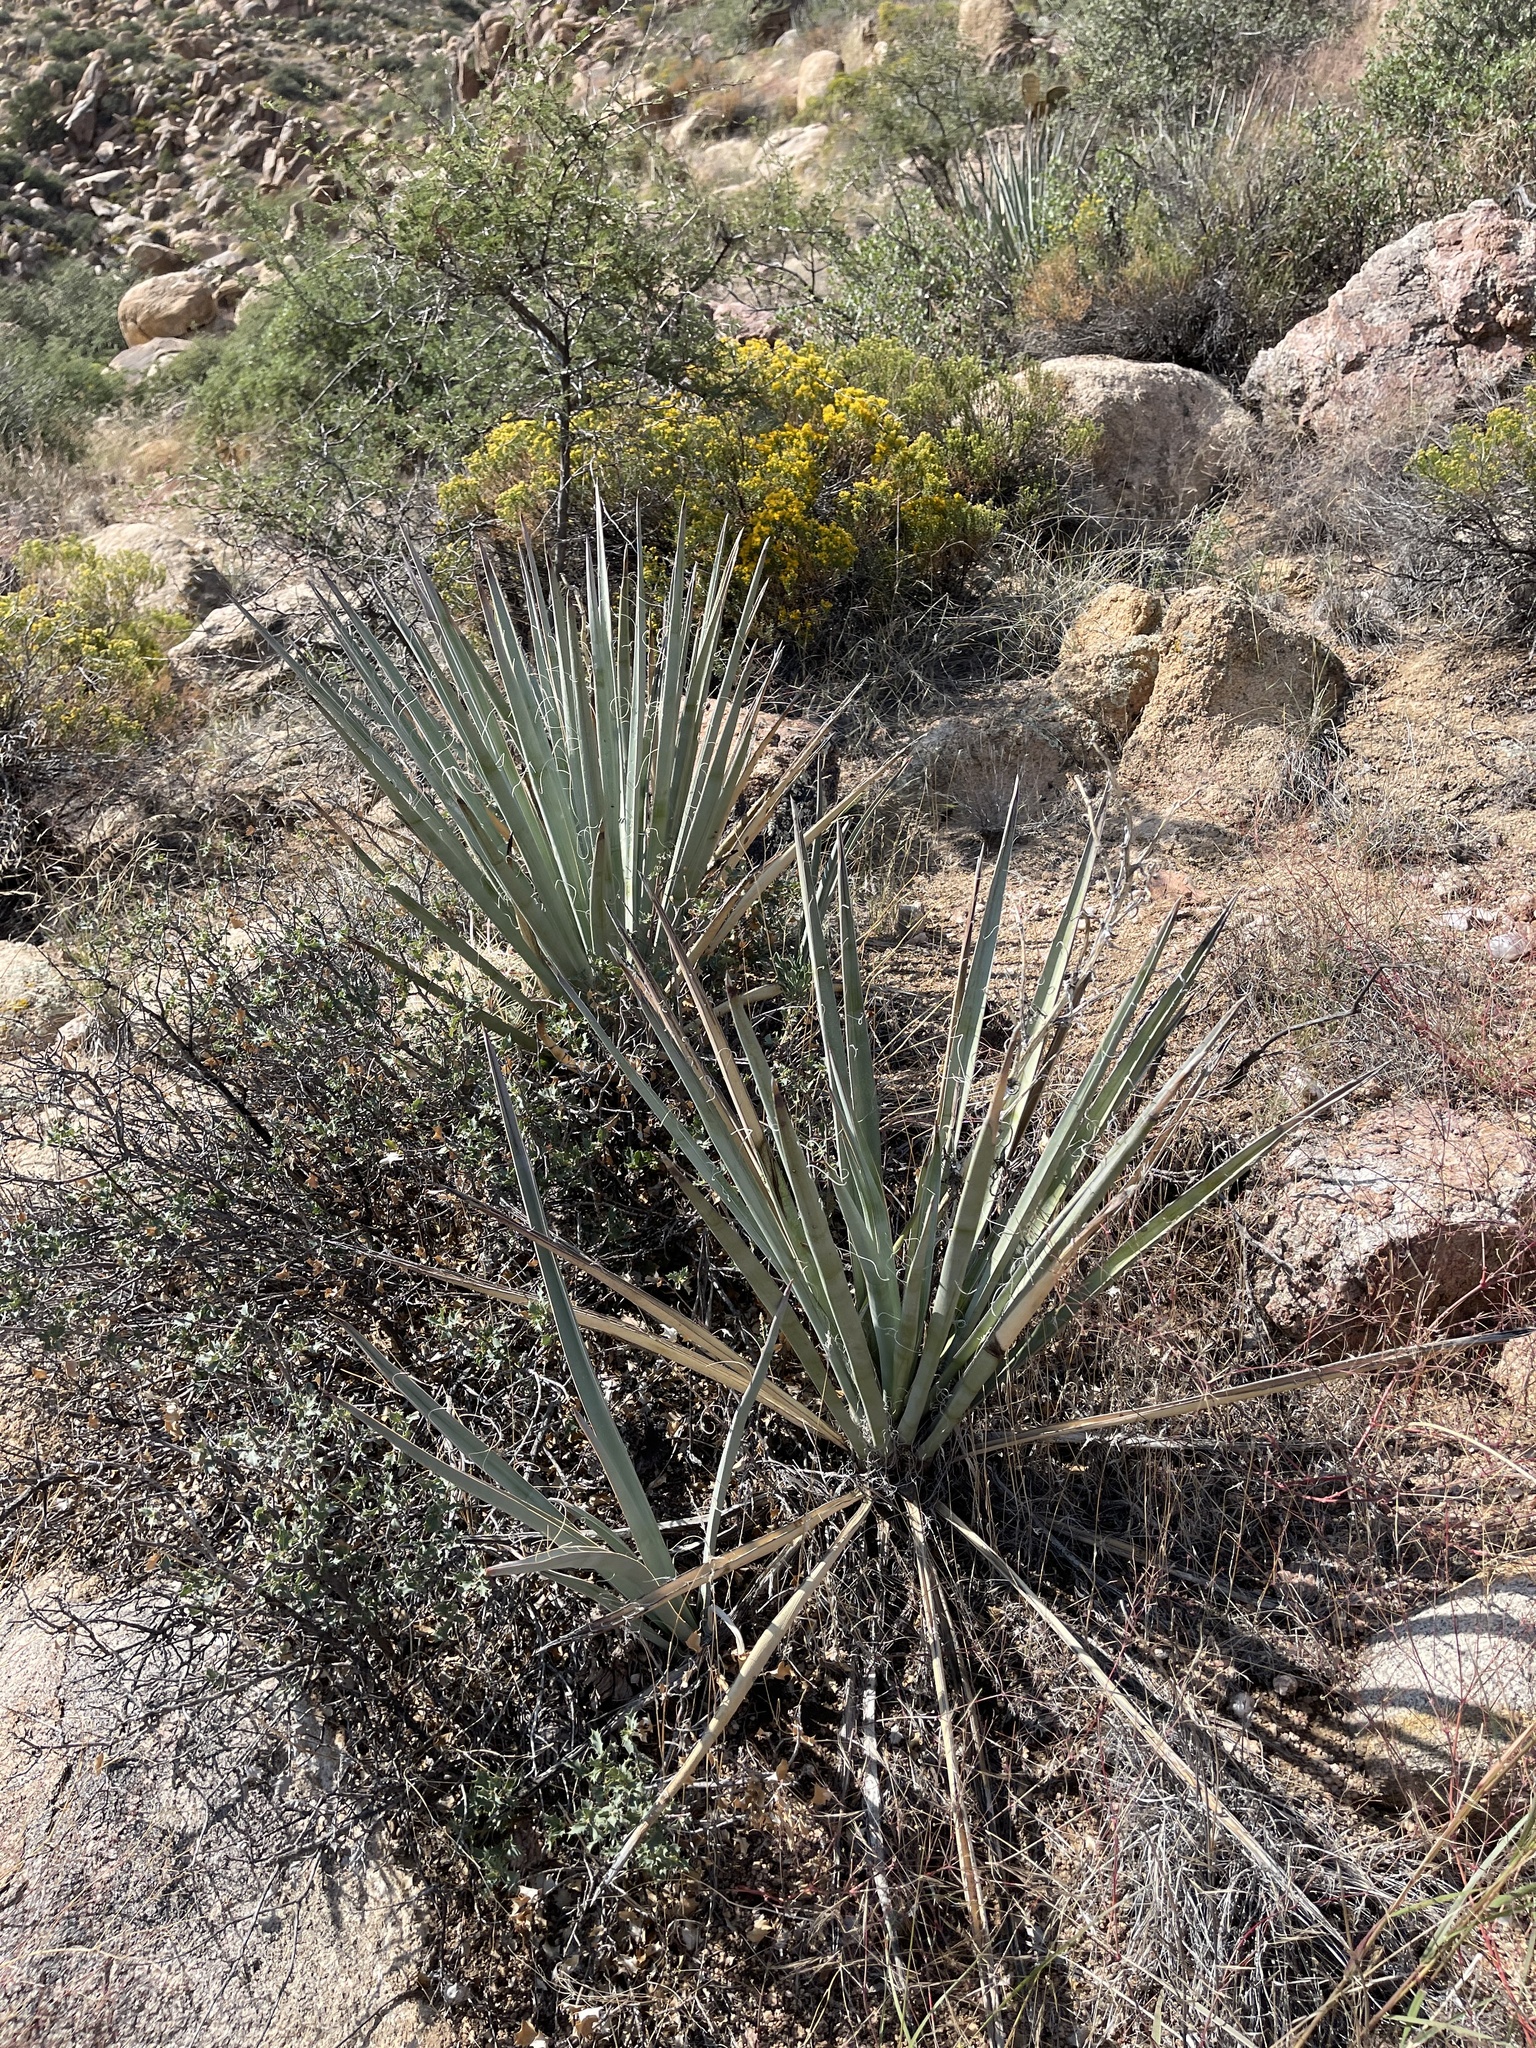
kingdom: Plantae
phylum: Tracheophyta
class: Liliopsida
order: Asparagales
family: Asparagaceae
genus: Yucca
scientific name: Yucca baccata
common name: Banana yucca
